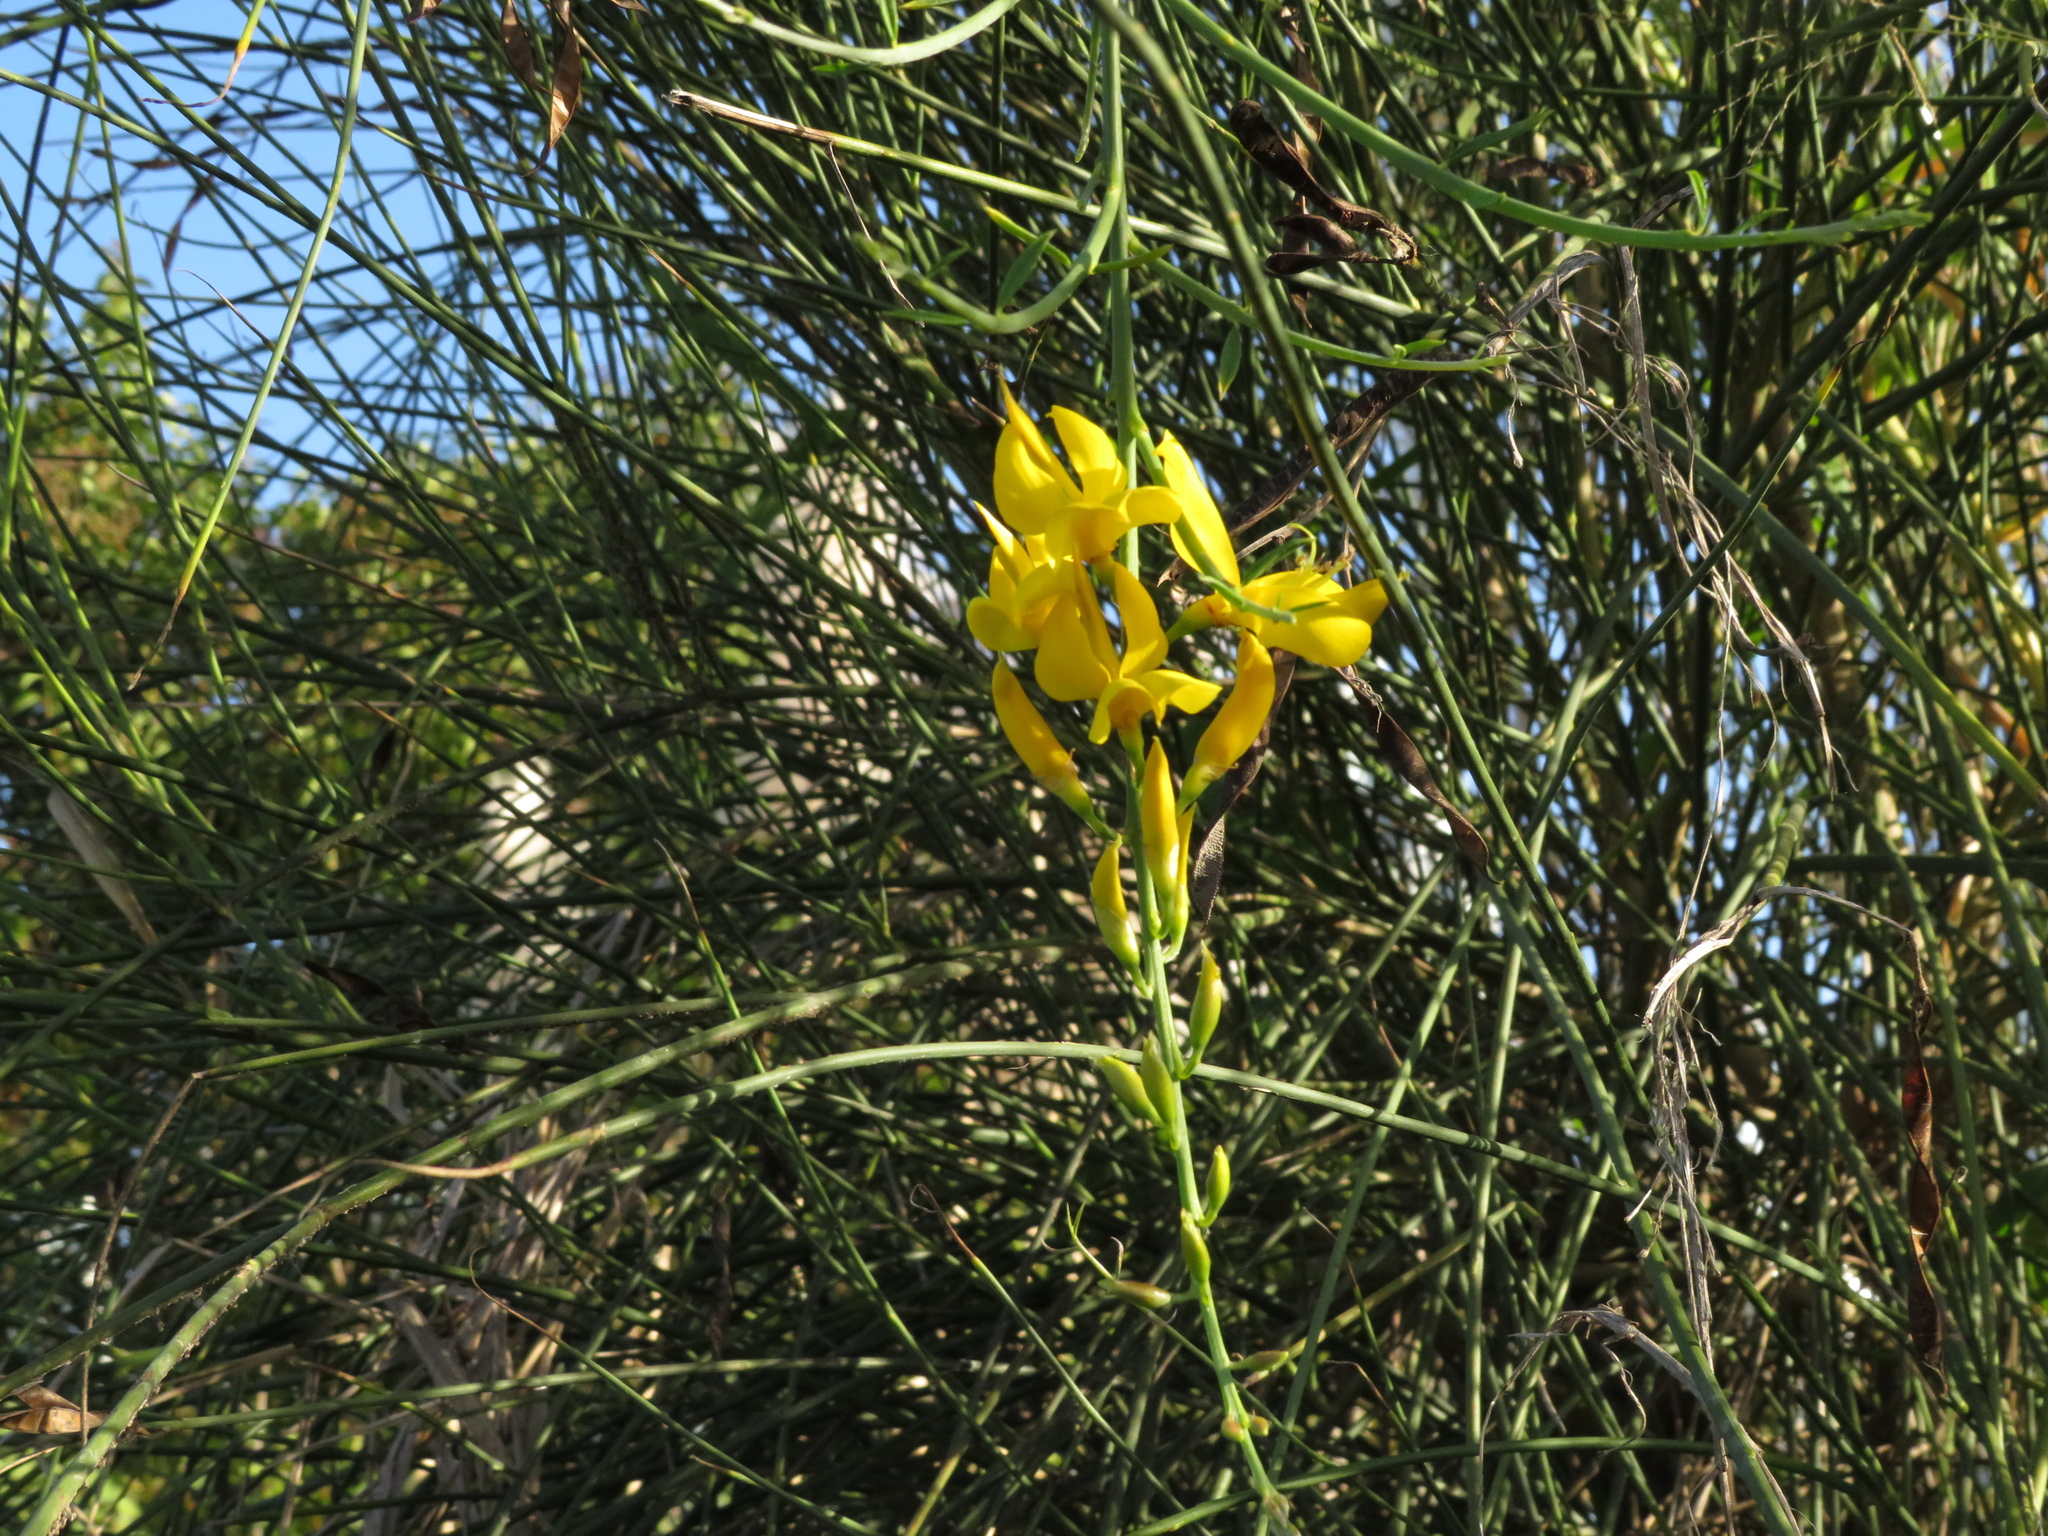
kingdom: Plantae
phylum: Tracheophyta
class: Magnoliopsida
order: Fabales
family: Fabaceae
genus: Spartium
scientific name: Spartium junceum
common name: Spanish broom
